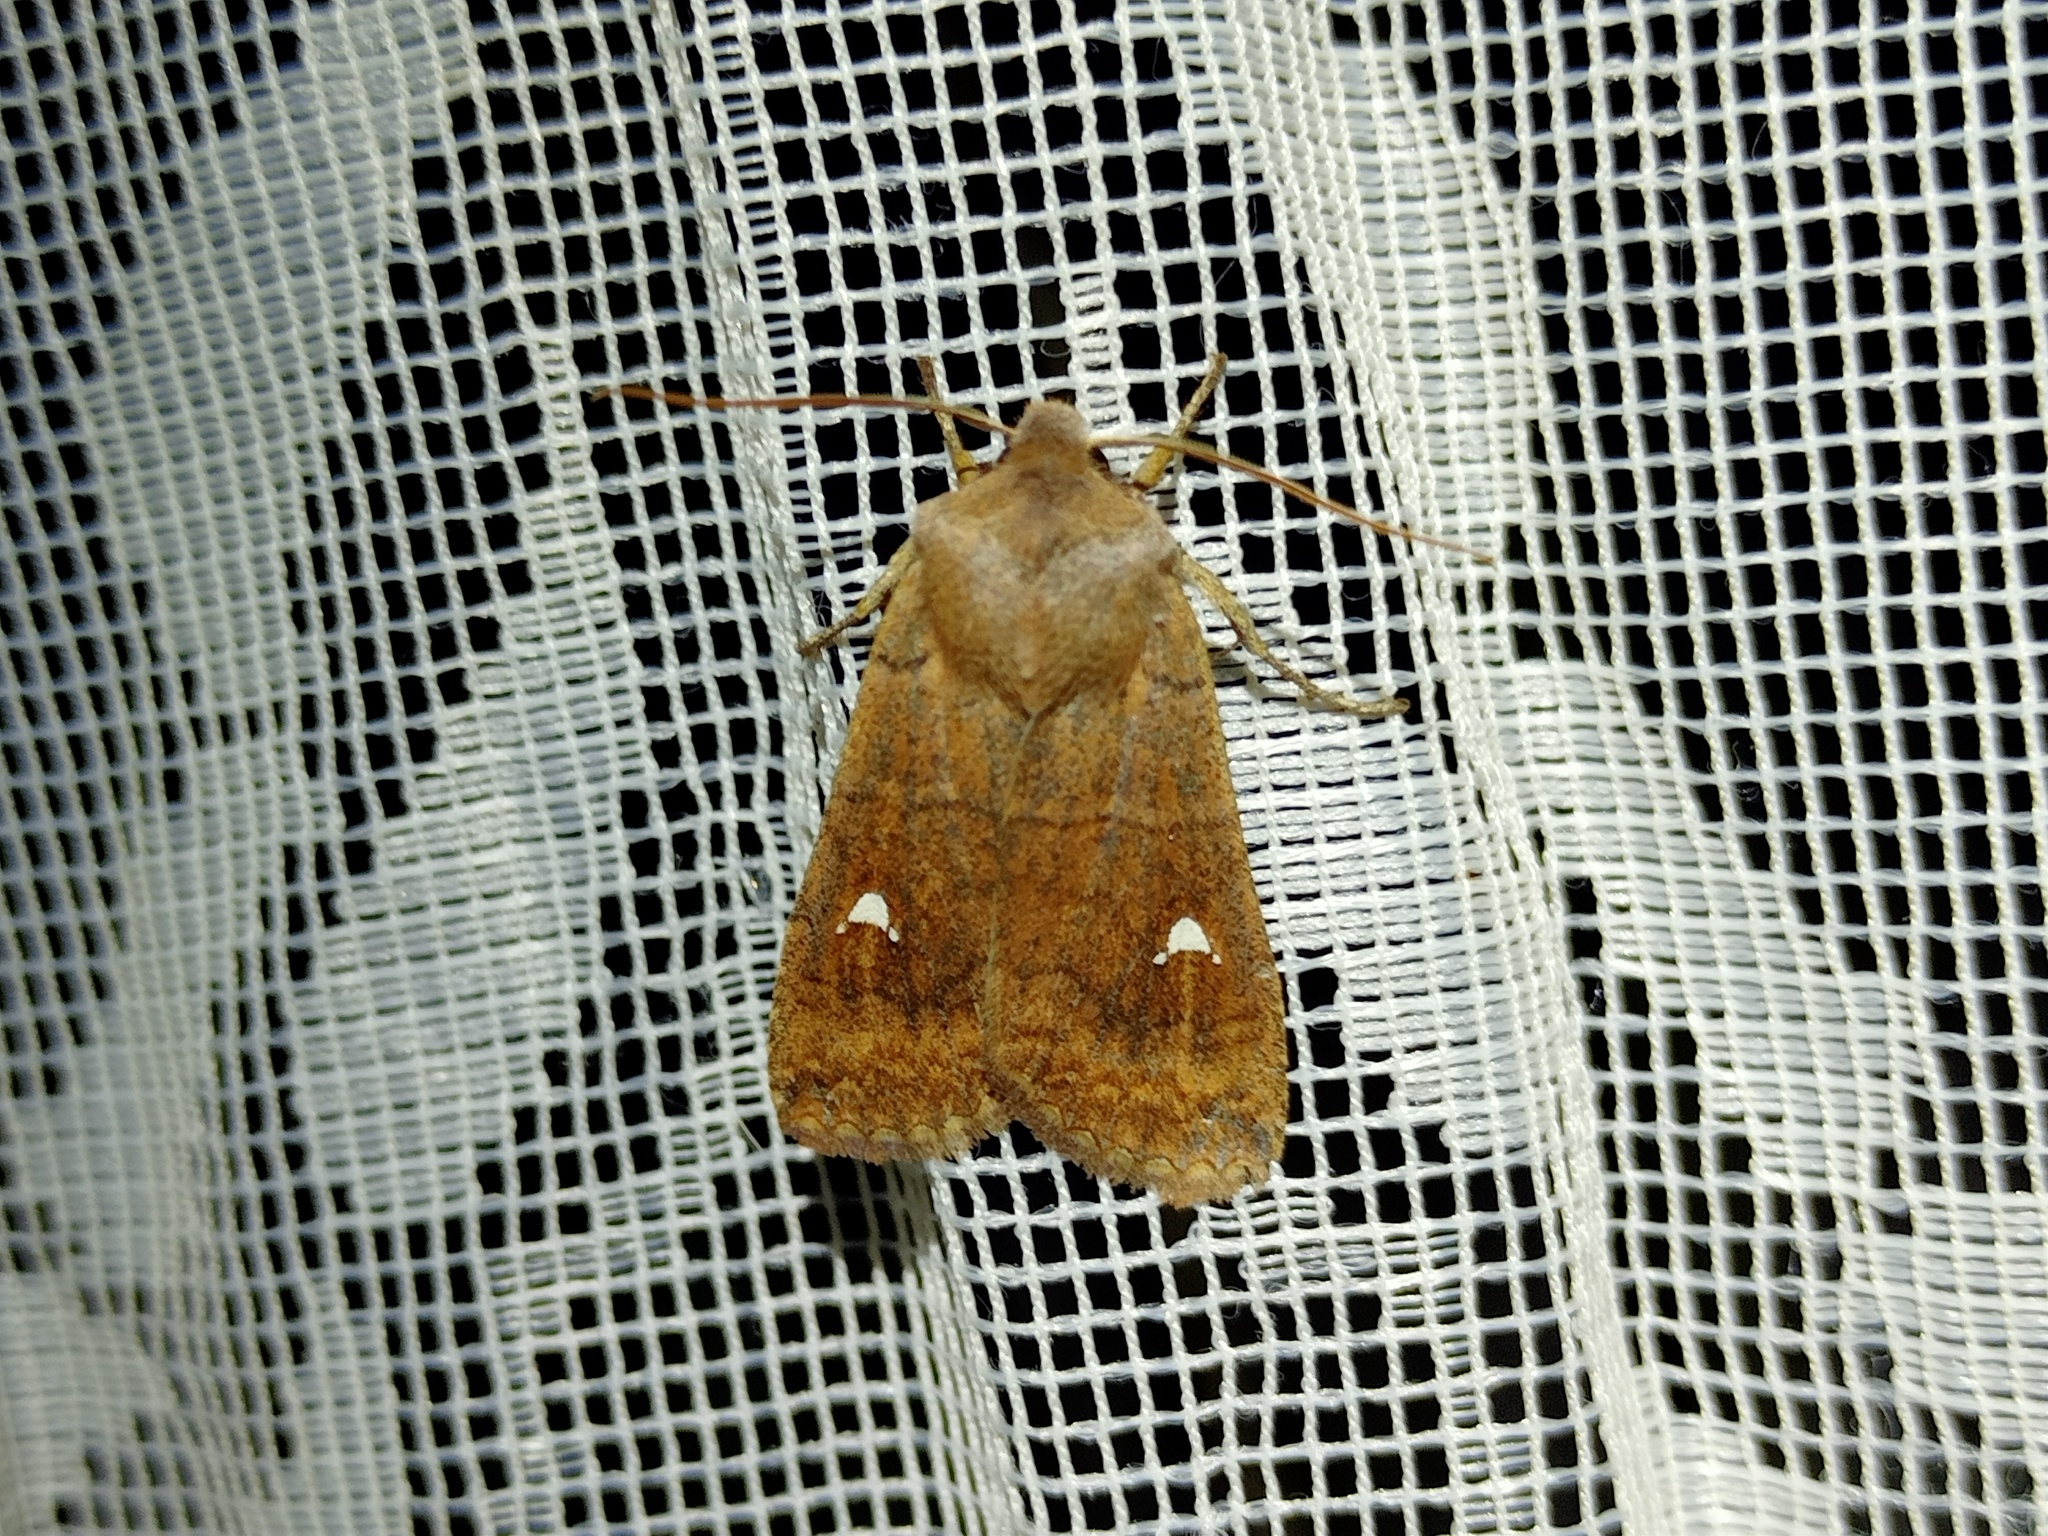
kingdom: Animalia
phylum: Arthropoda
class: Insecta
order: Lepidoptera
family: Noctuidae
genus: Eupsilia
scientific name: Eupsilia transversa
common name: Satellite
